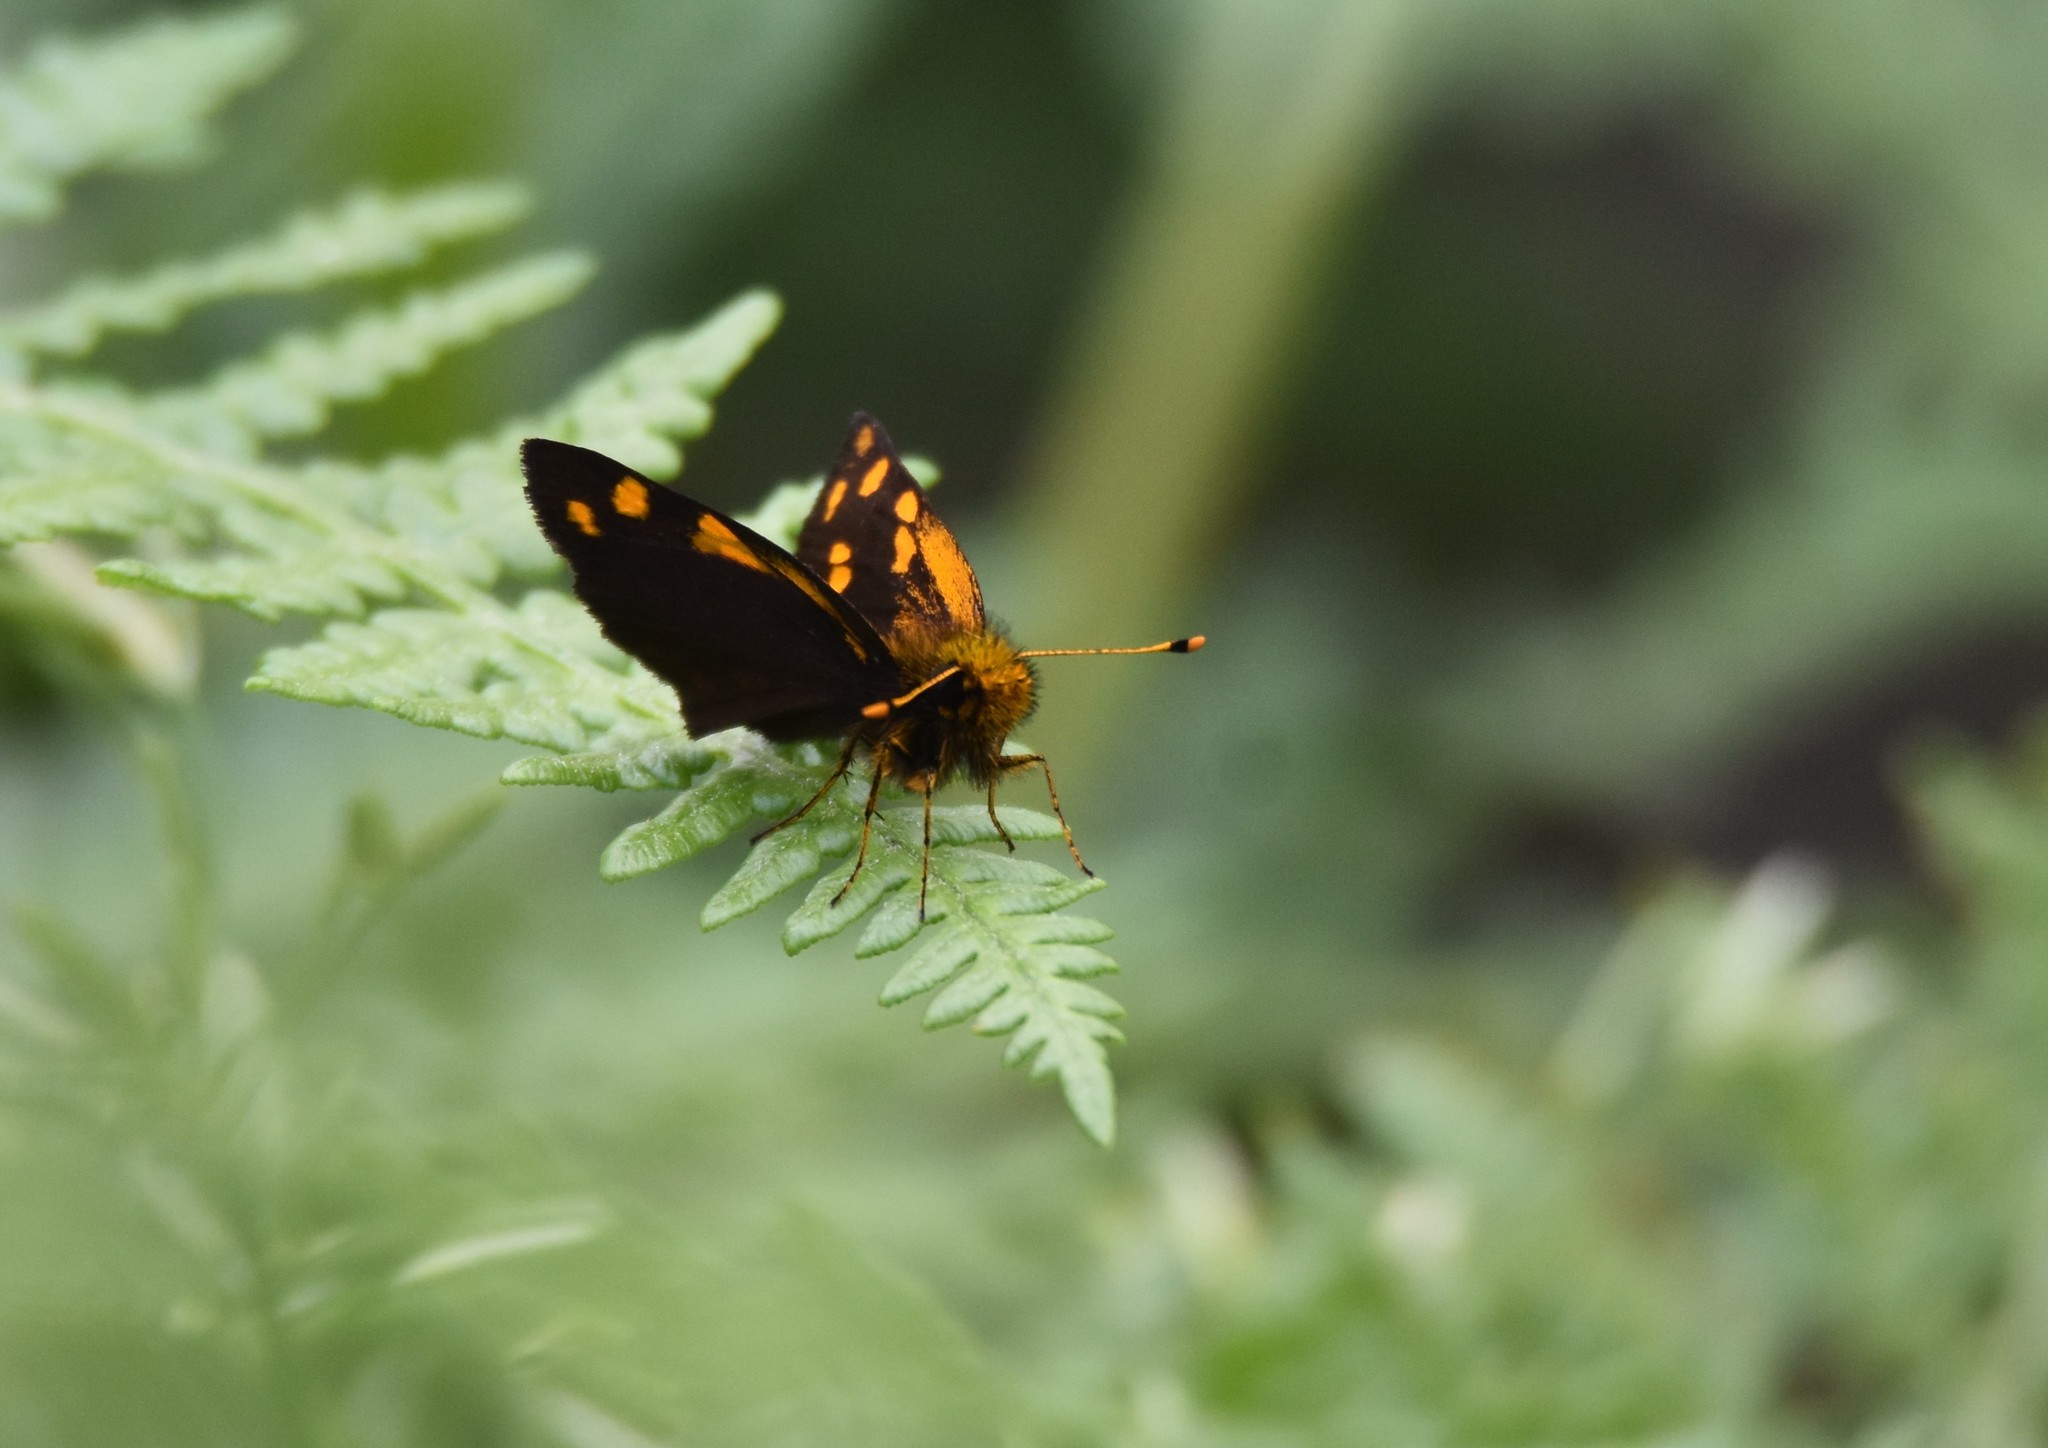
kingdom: Animalia
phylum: Arthropoda
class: Insecta
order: Lepidoptera
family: Hesperiidae
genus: Metisella
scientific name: Metisella metis
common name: Western gold-spotted sylph
